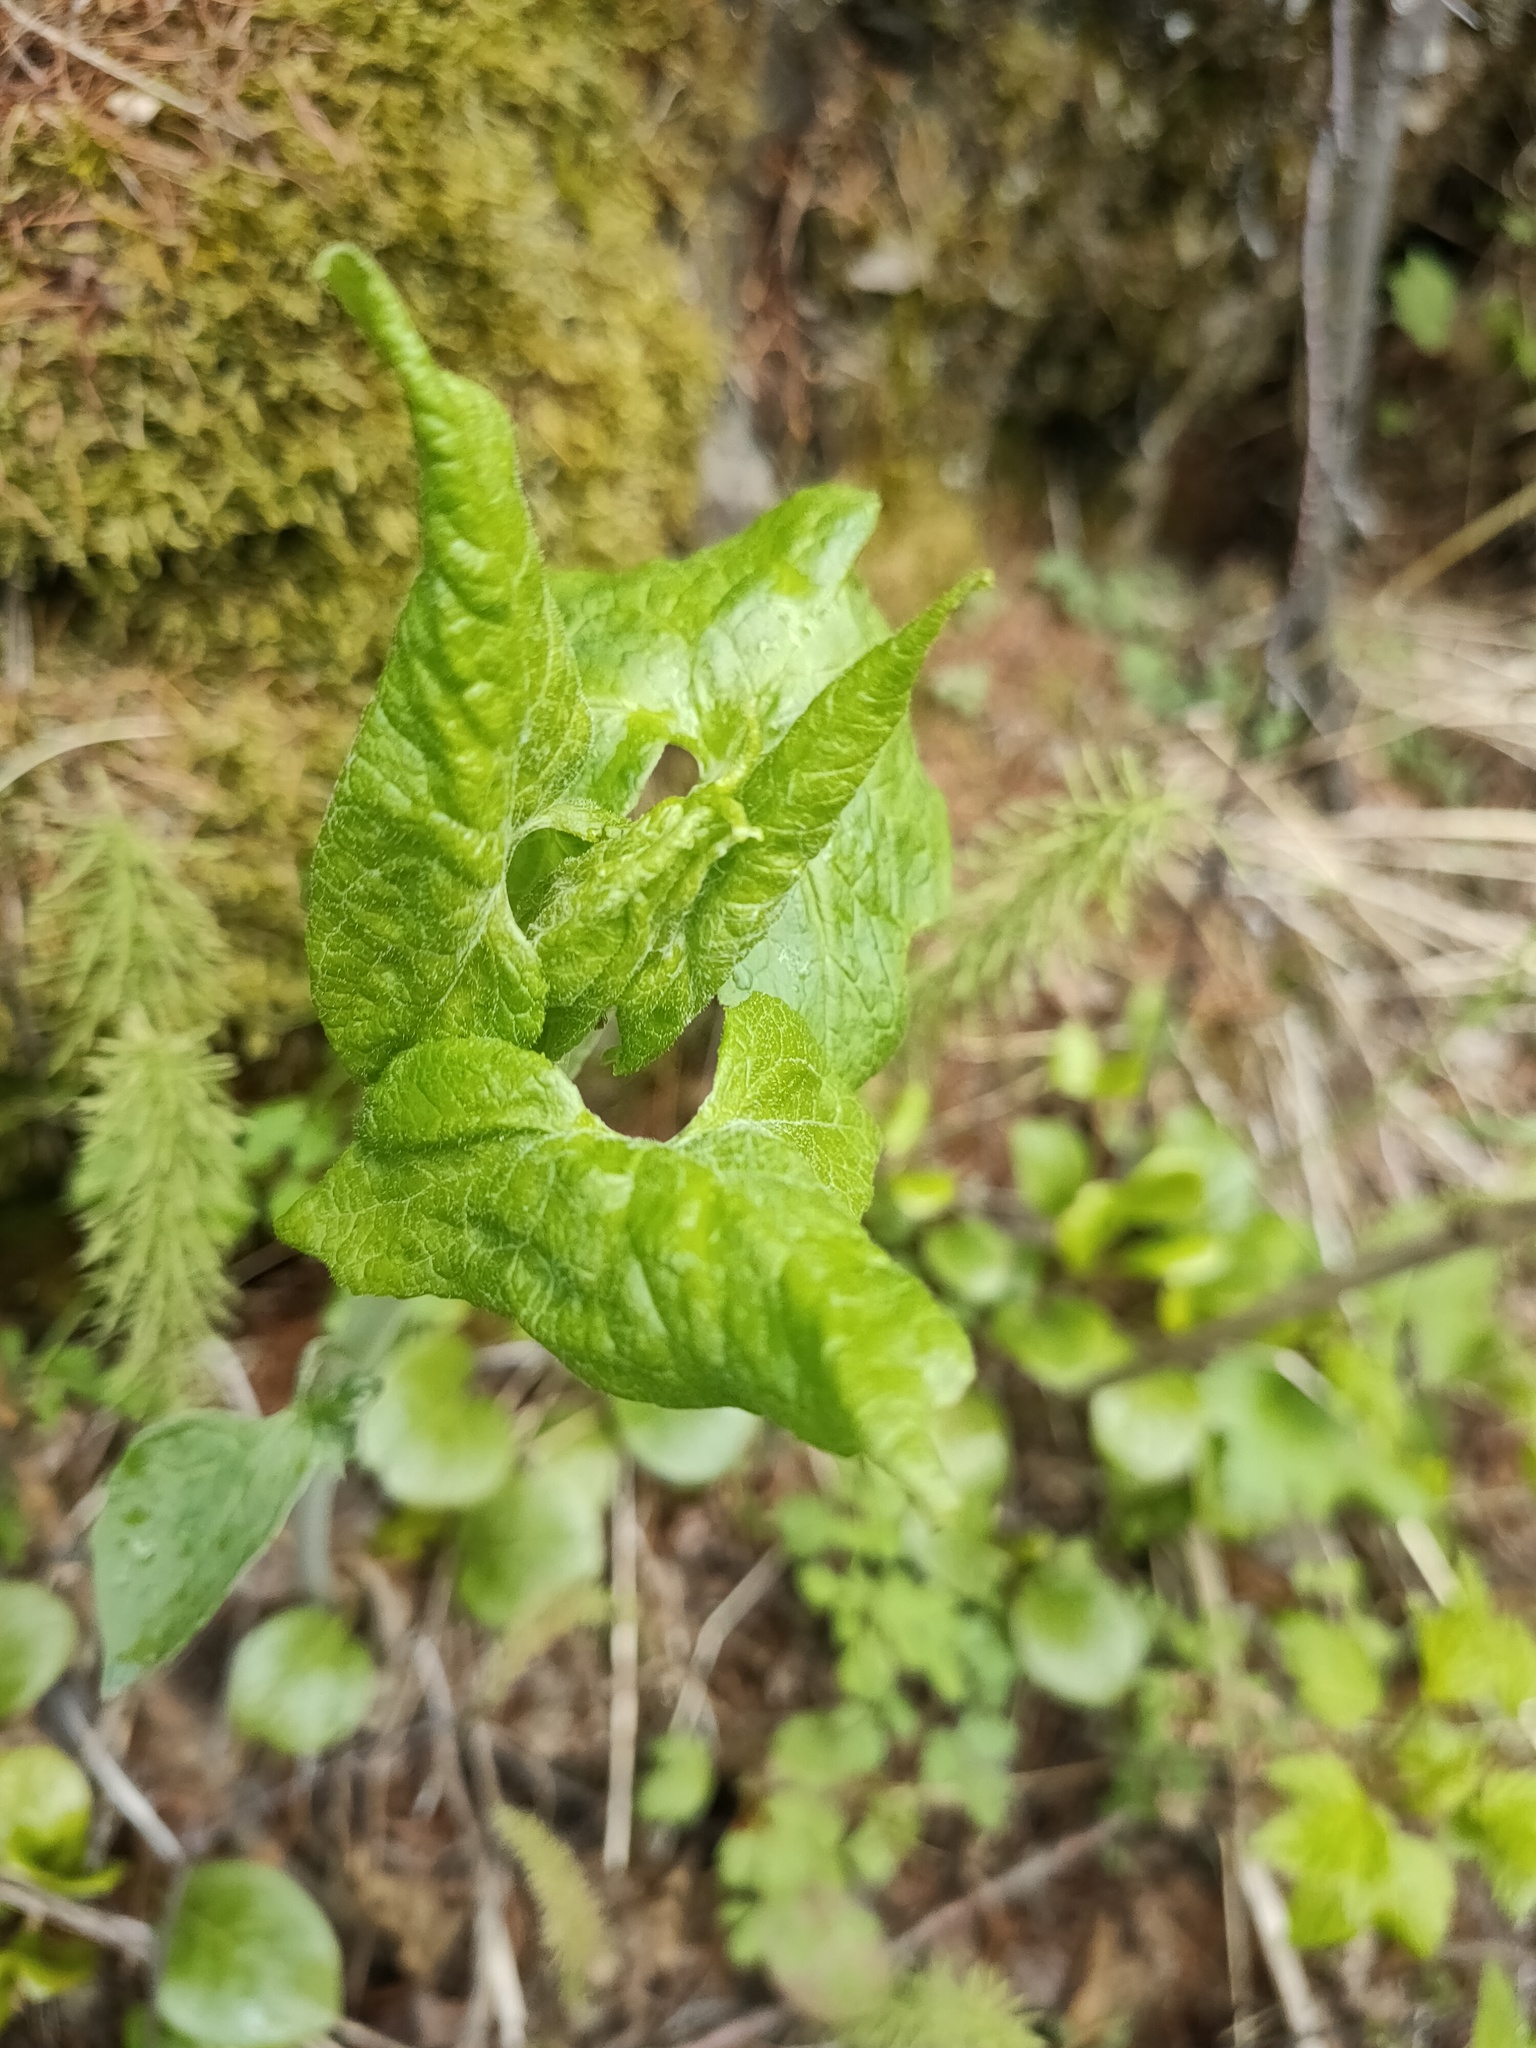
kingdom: Plantae
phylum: Tracheophyta
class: Magnoliopsida
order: Asterales
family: Asteraceae
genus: Parasenecio
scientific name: Parasenecio hastatus
